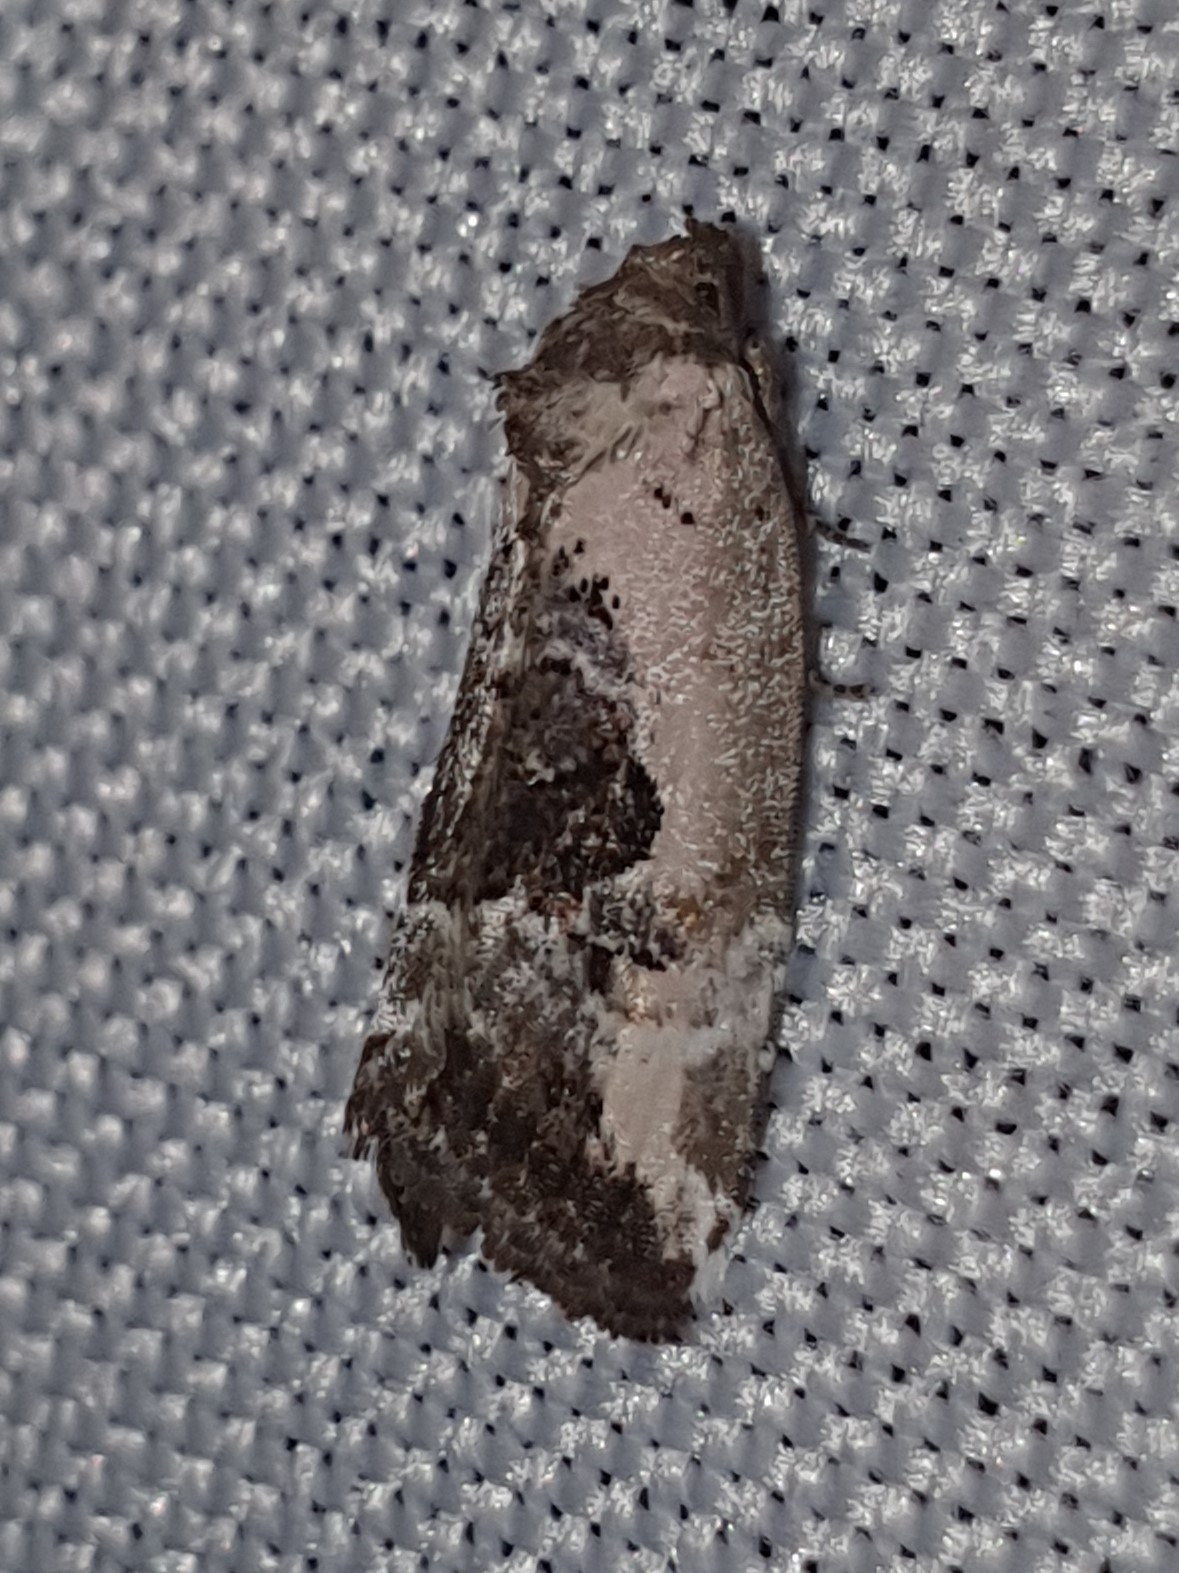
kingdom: Animalia
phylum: Arthropoda
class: Insecta
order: Lepidoptera
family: Noctuidae
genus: Elaphria
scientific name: Elaphria venustula
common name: Rosy marbled
